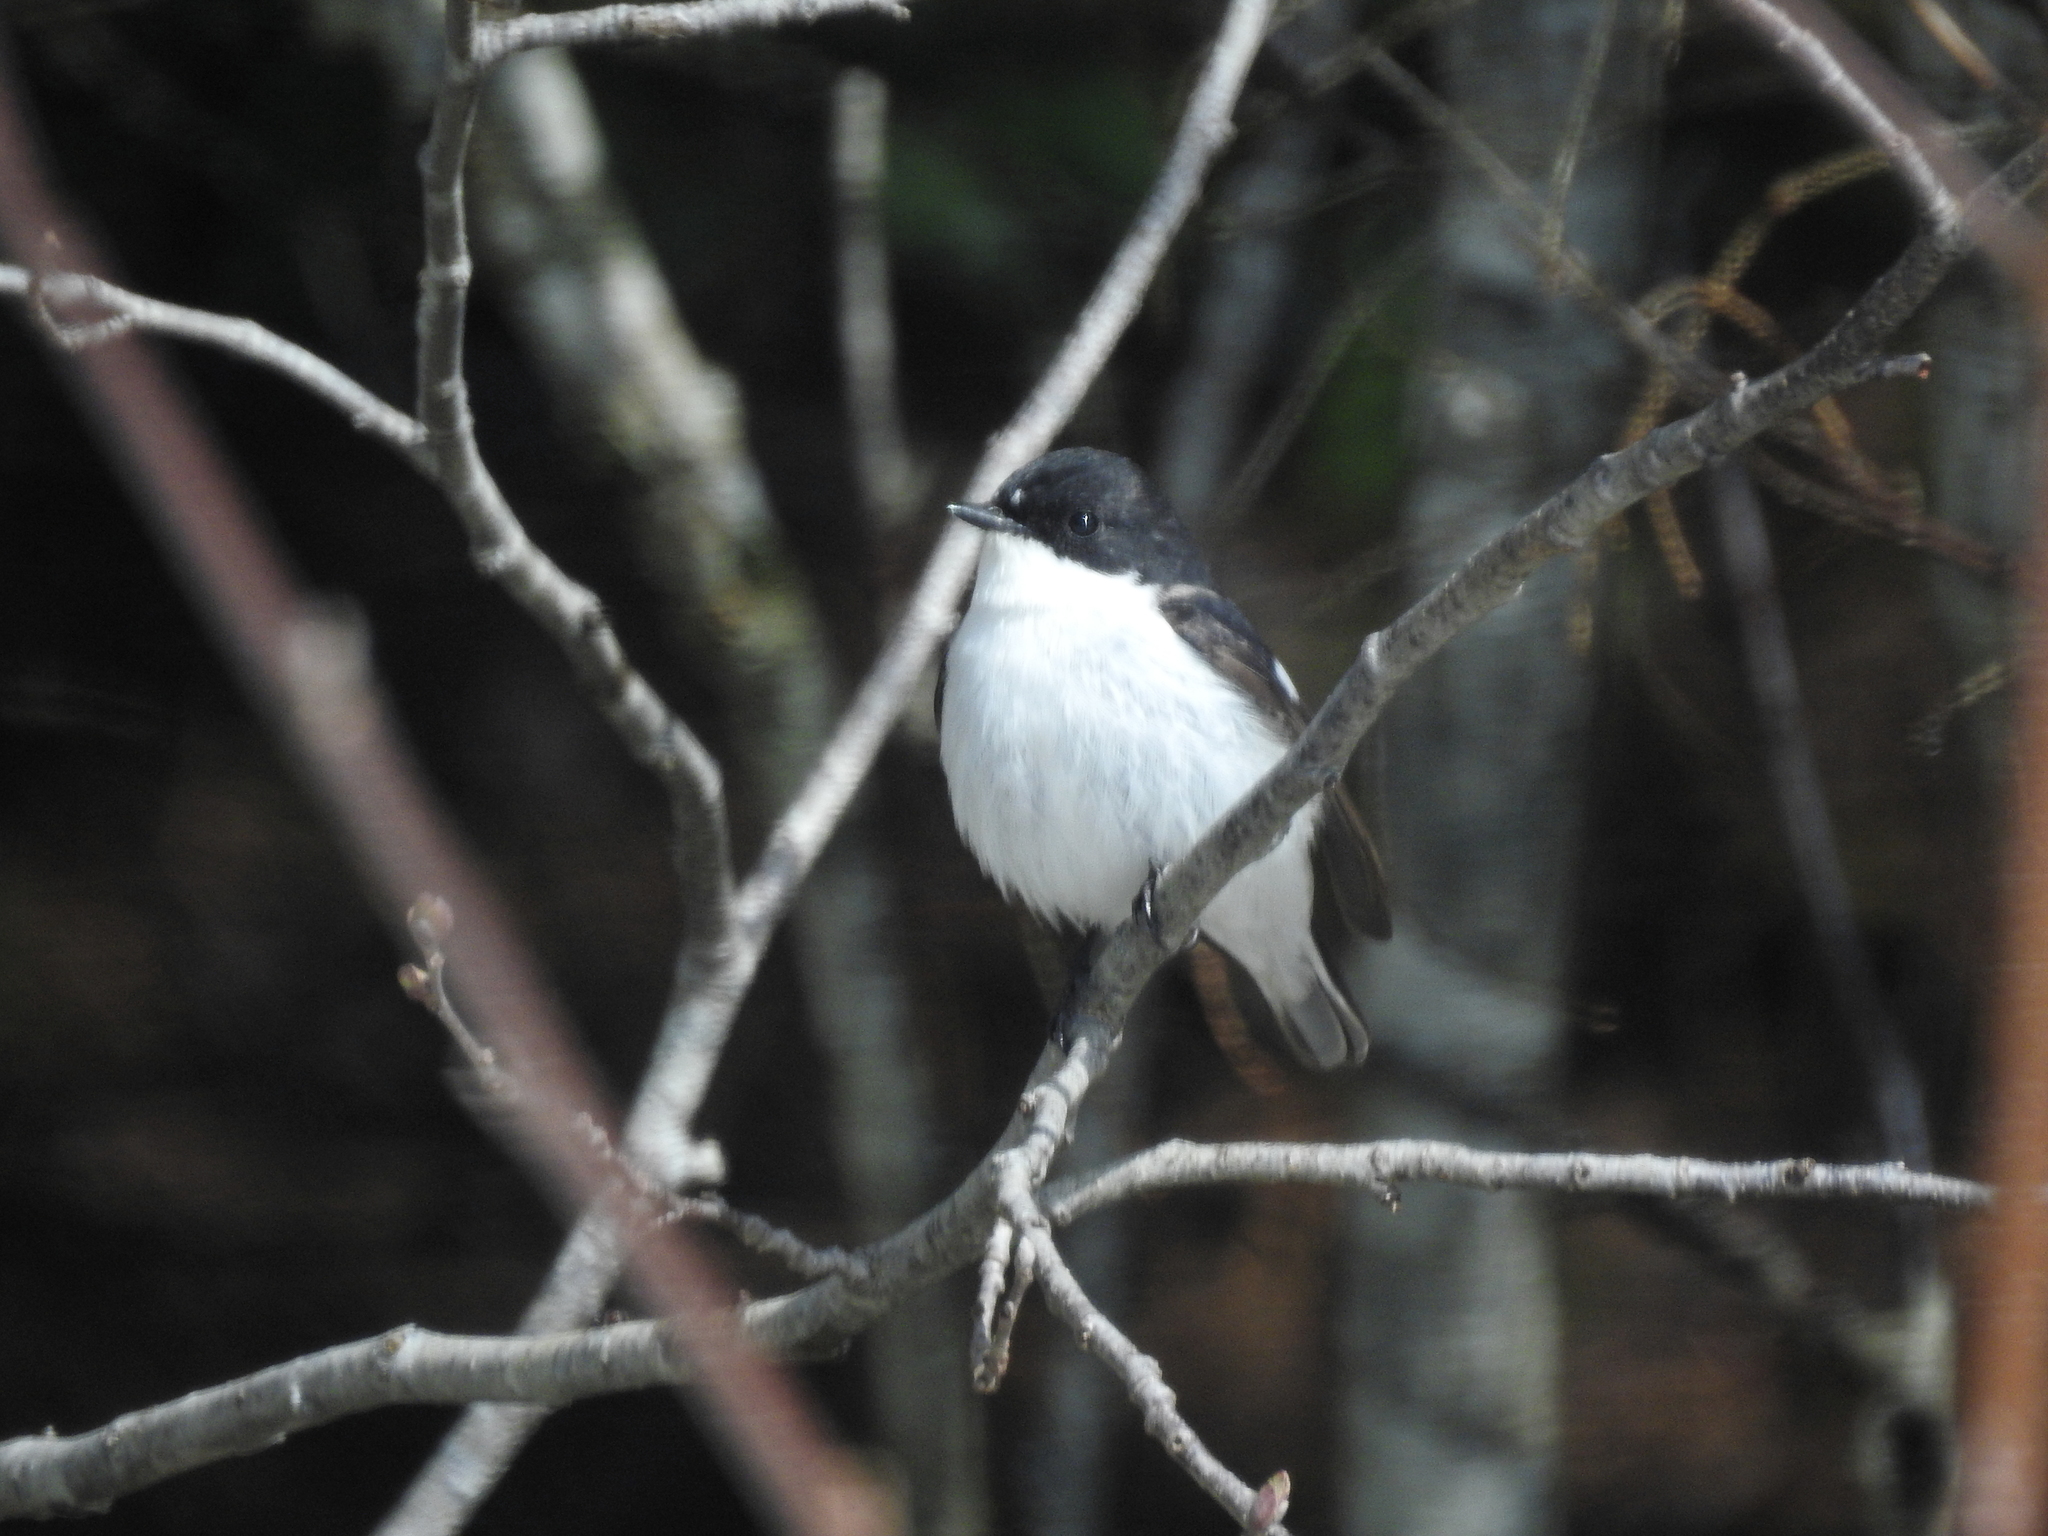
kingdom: Animalia
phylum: Chordata
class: Aves
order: Passeriformes
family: Muscicapidae
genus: Ficedula
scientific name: Ficedula hypoleuca
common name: European pied flycatcher
